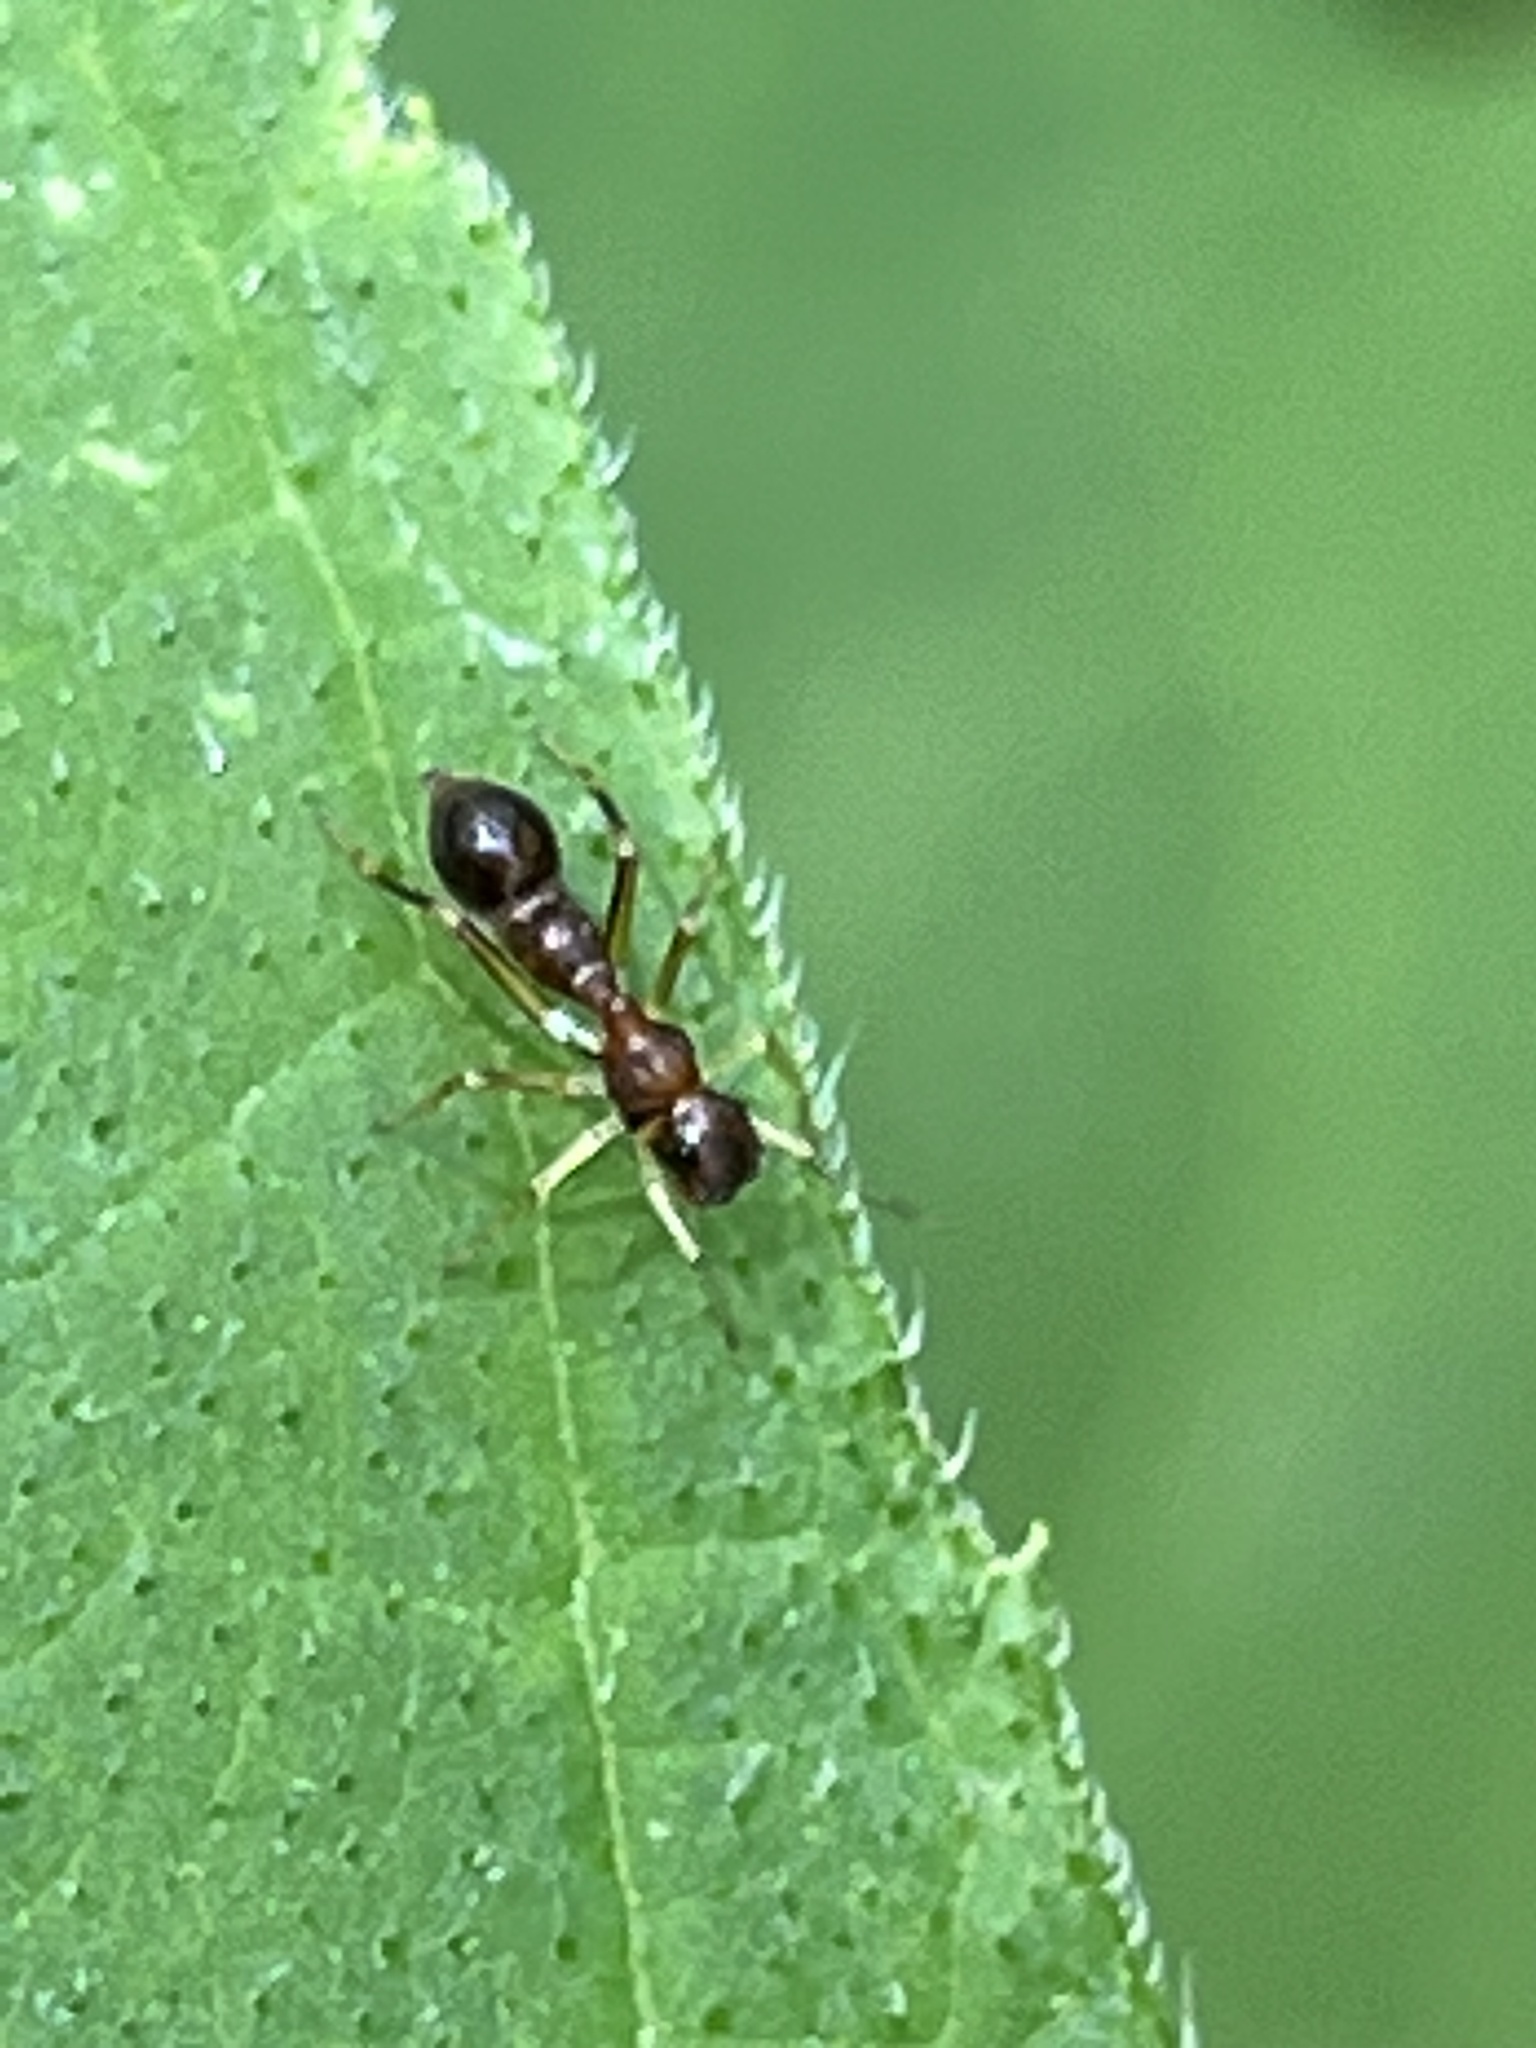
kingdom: Animalia
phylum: Arthropoda
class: Arachnida
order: Araneae
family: Salticidae
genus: Synemosyna
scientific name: Synemosyna formica
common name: Slender ant-mimic jumping spider
